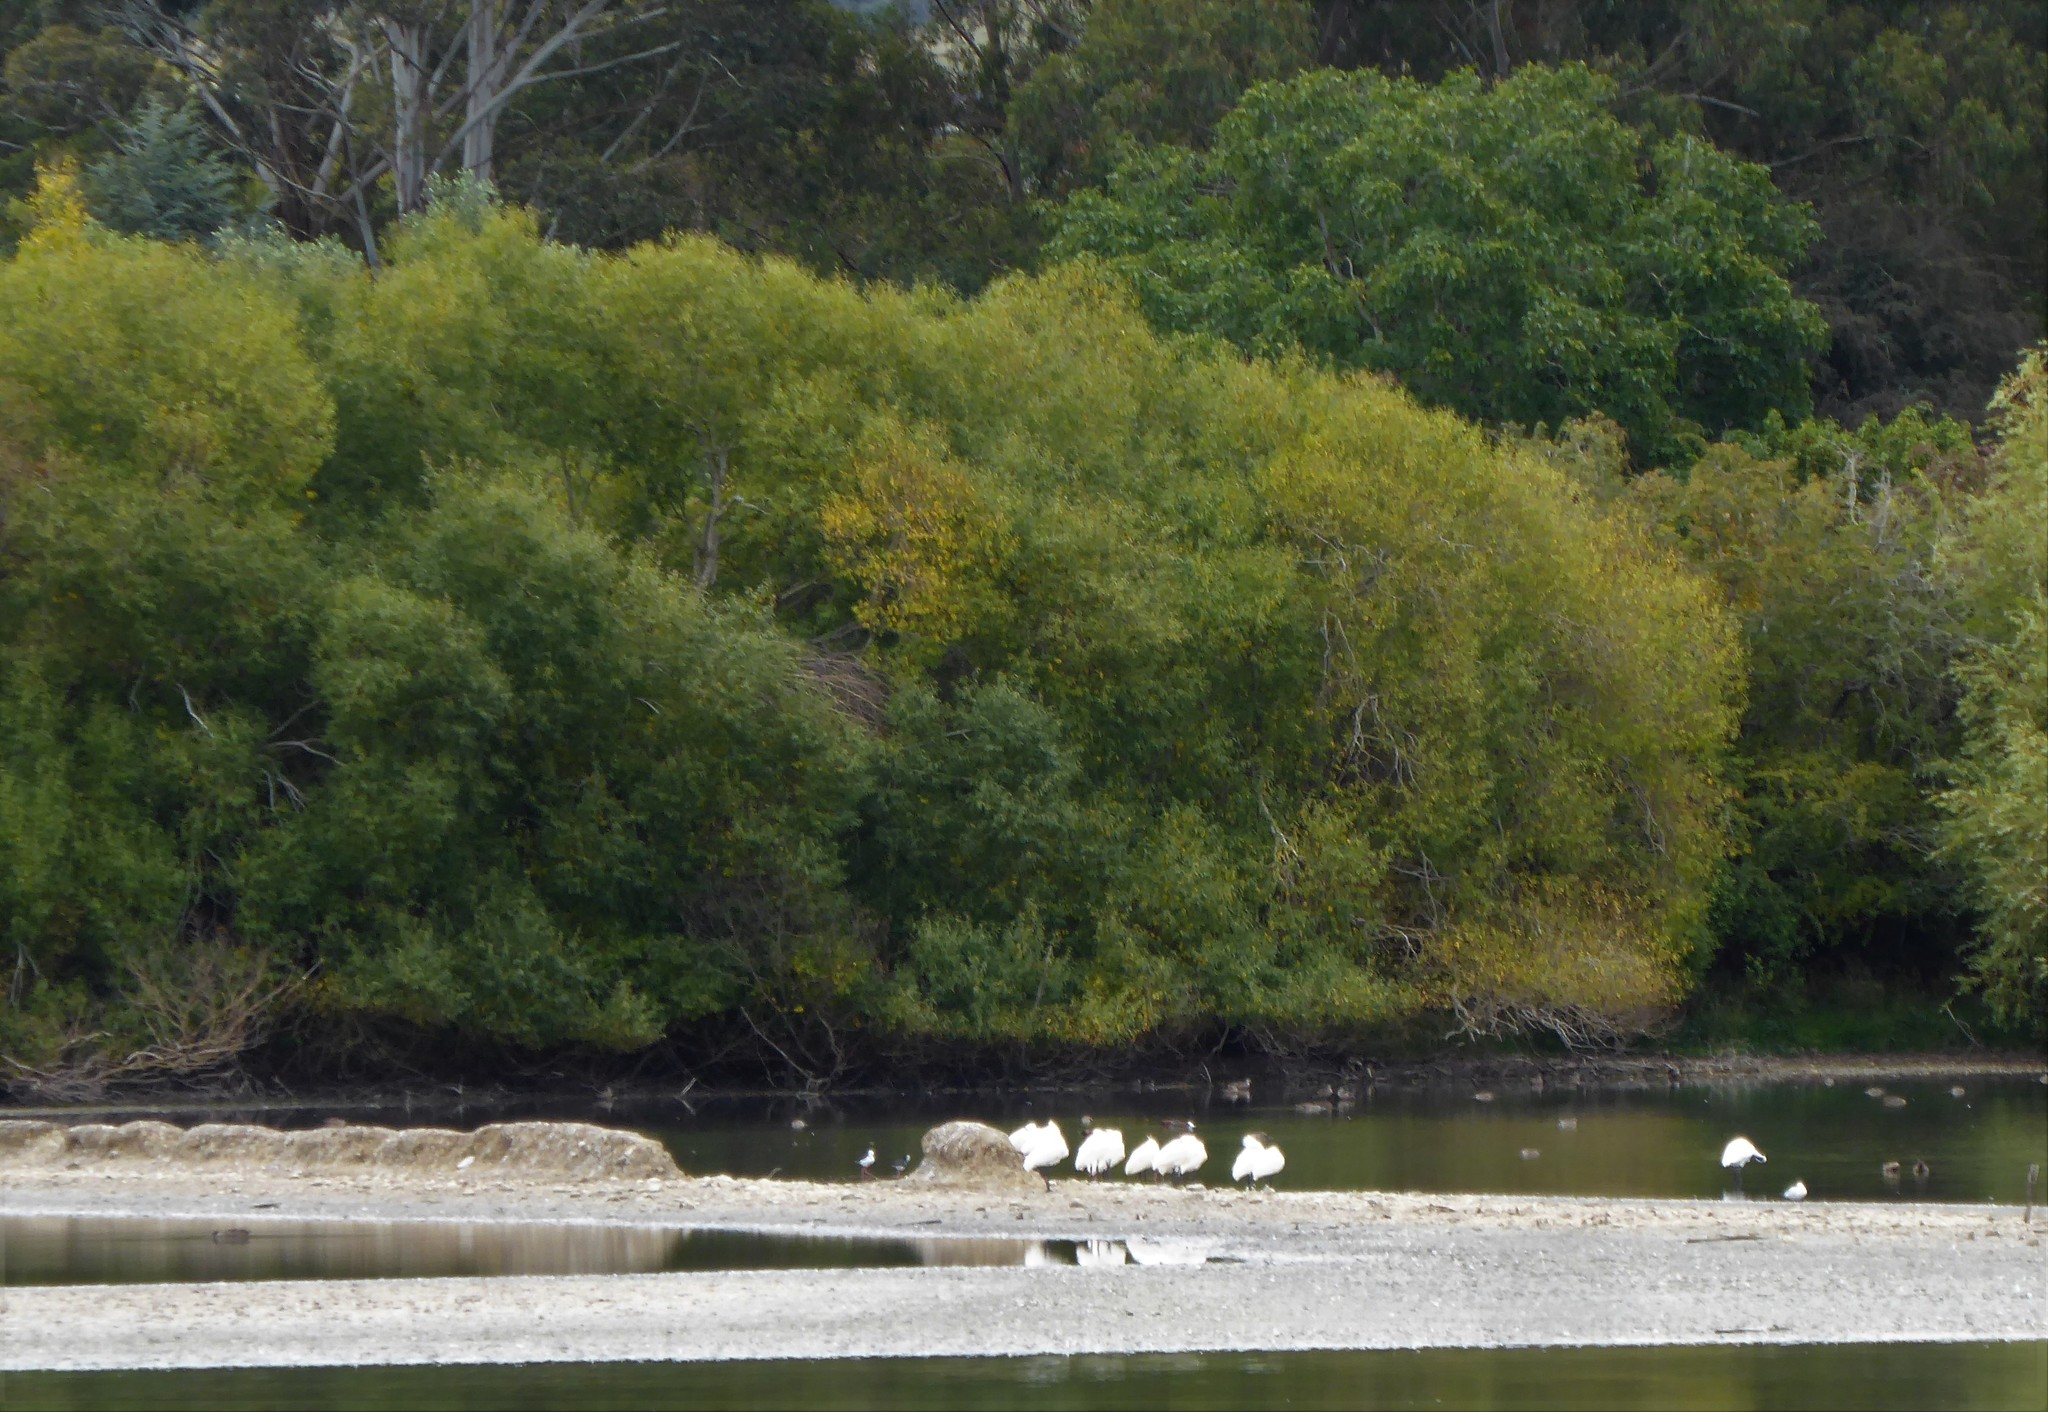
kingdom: Animalia
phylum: Chordata
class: Aves
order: Pelecaniformes
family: Threskiornithidae
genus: Platalea
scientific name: Platalea regia
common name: Royal spoonbill
